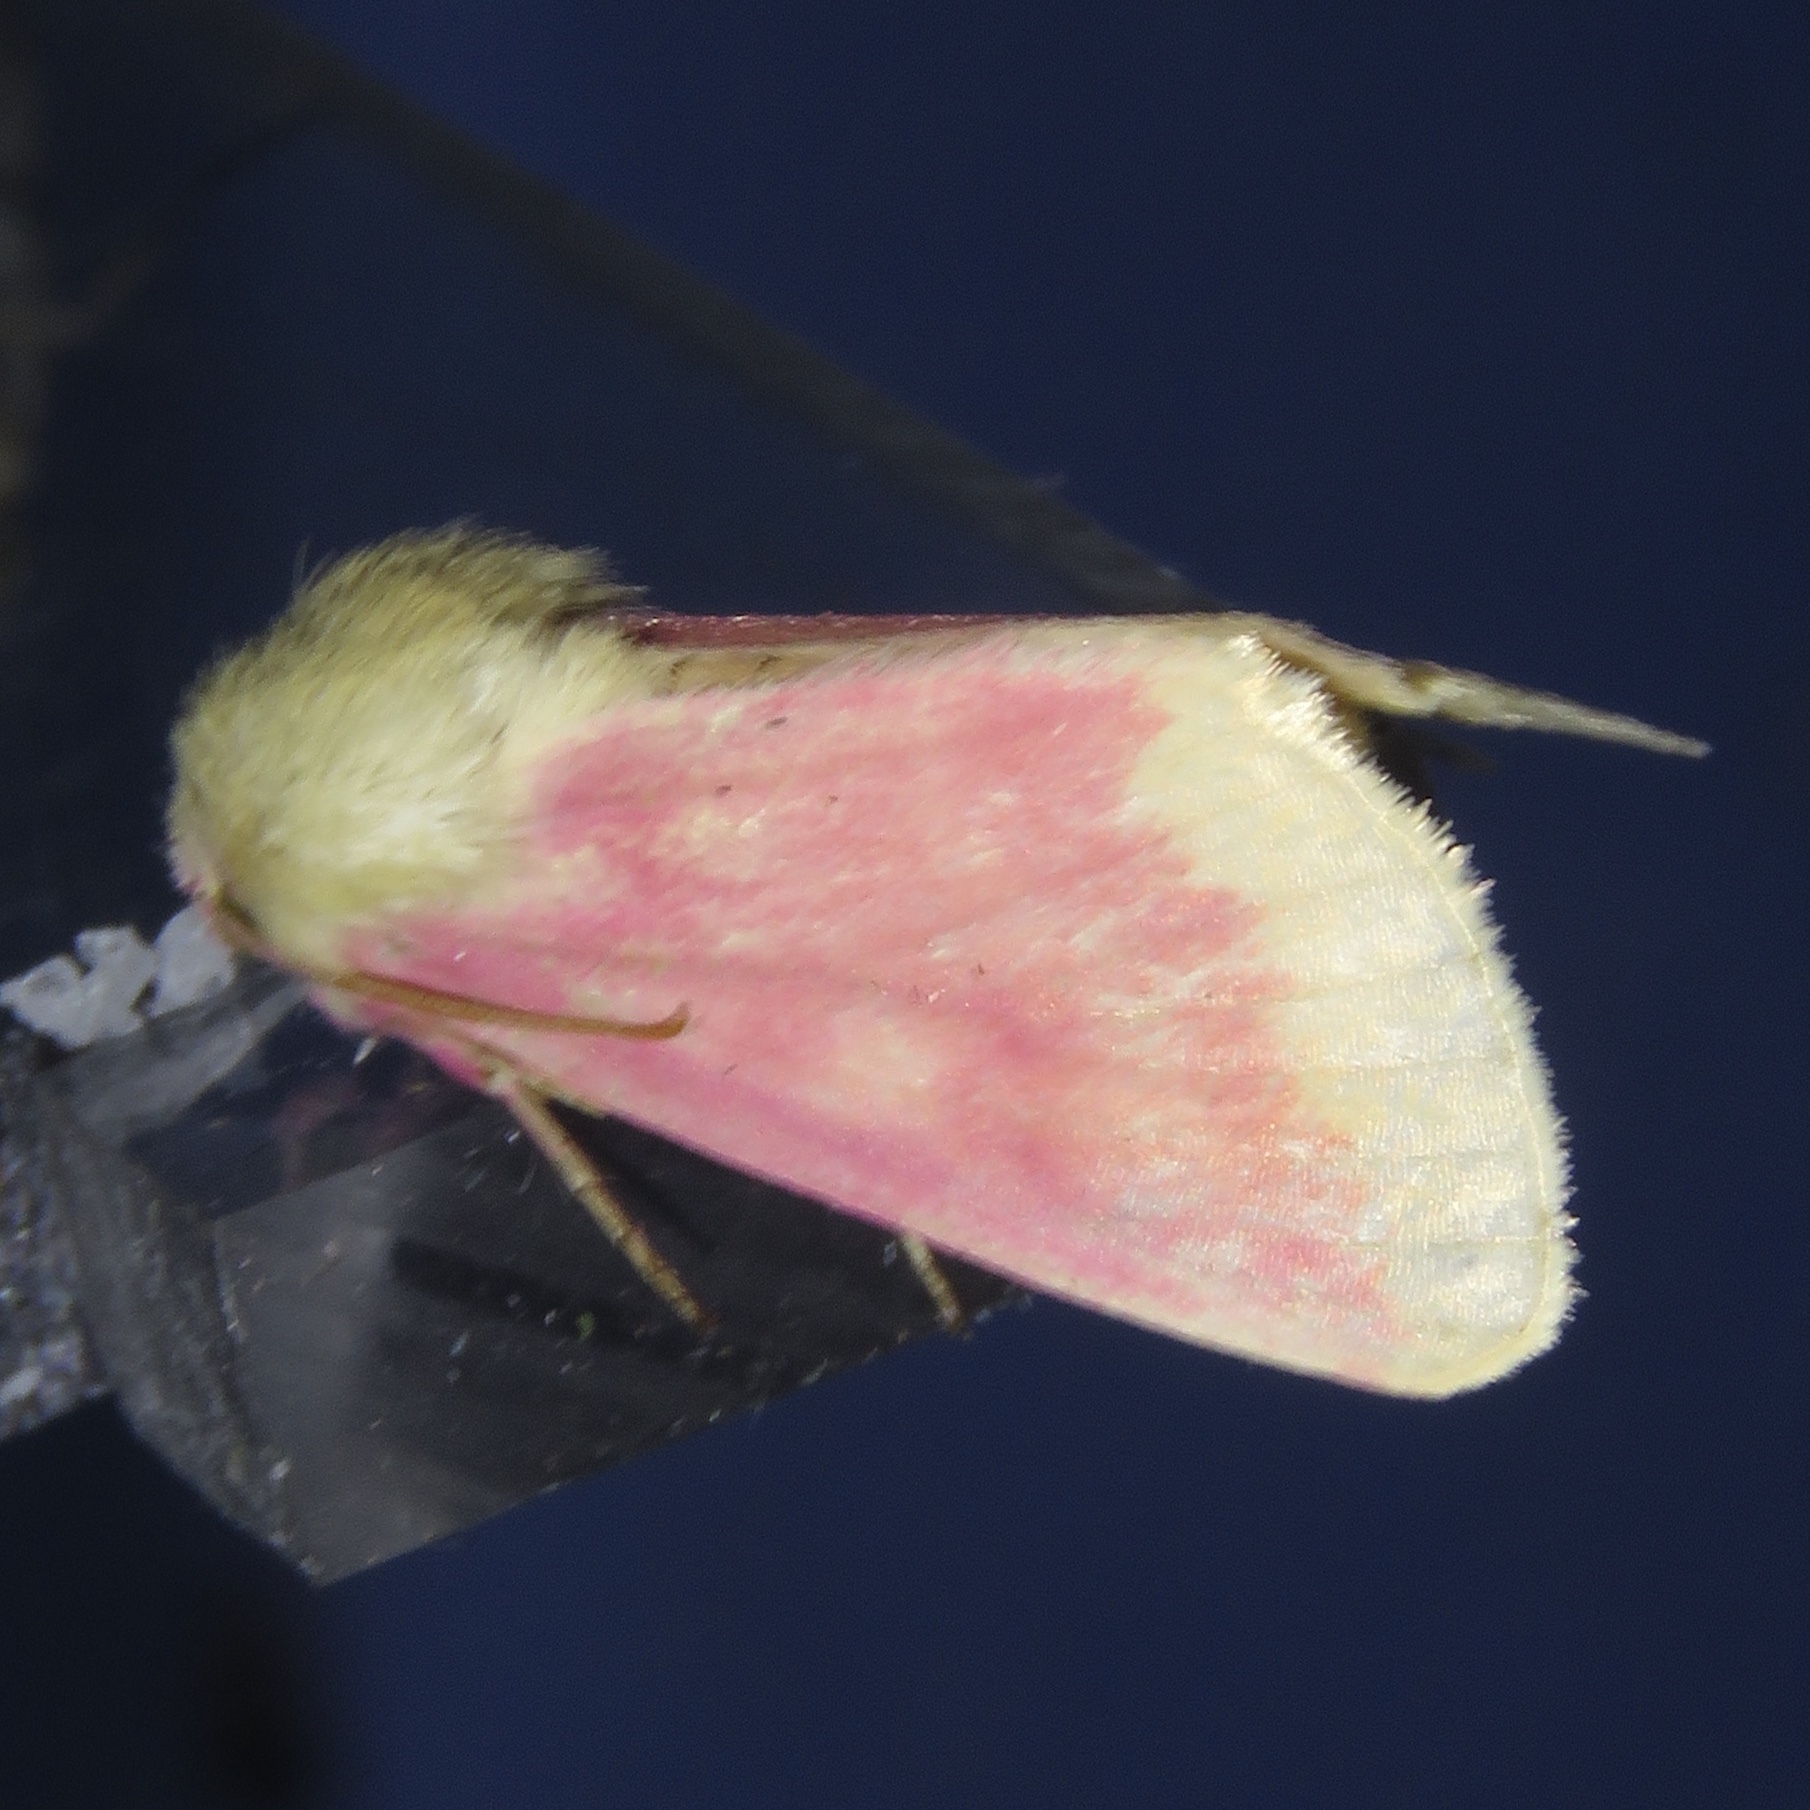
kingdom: Animalia
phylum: Arthropoda
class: Insecta
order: Lepidoptera
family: Noctuidae
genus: Schinia
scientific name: Schinia florida
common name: Primrose moth
